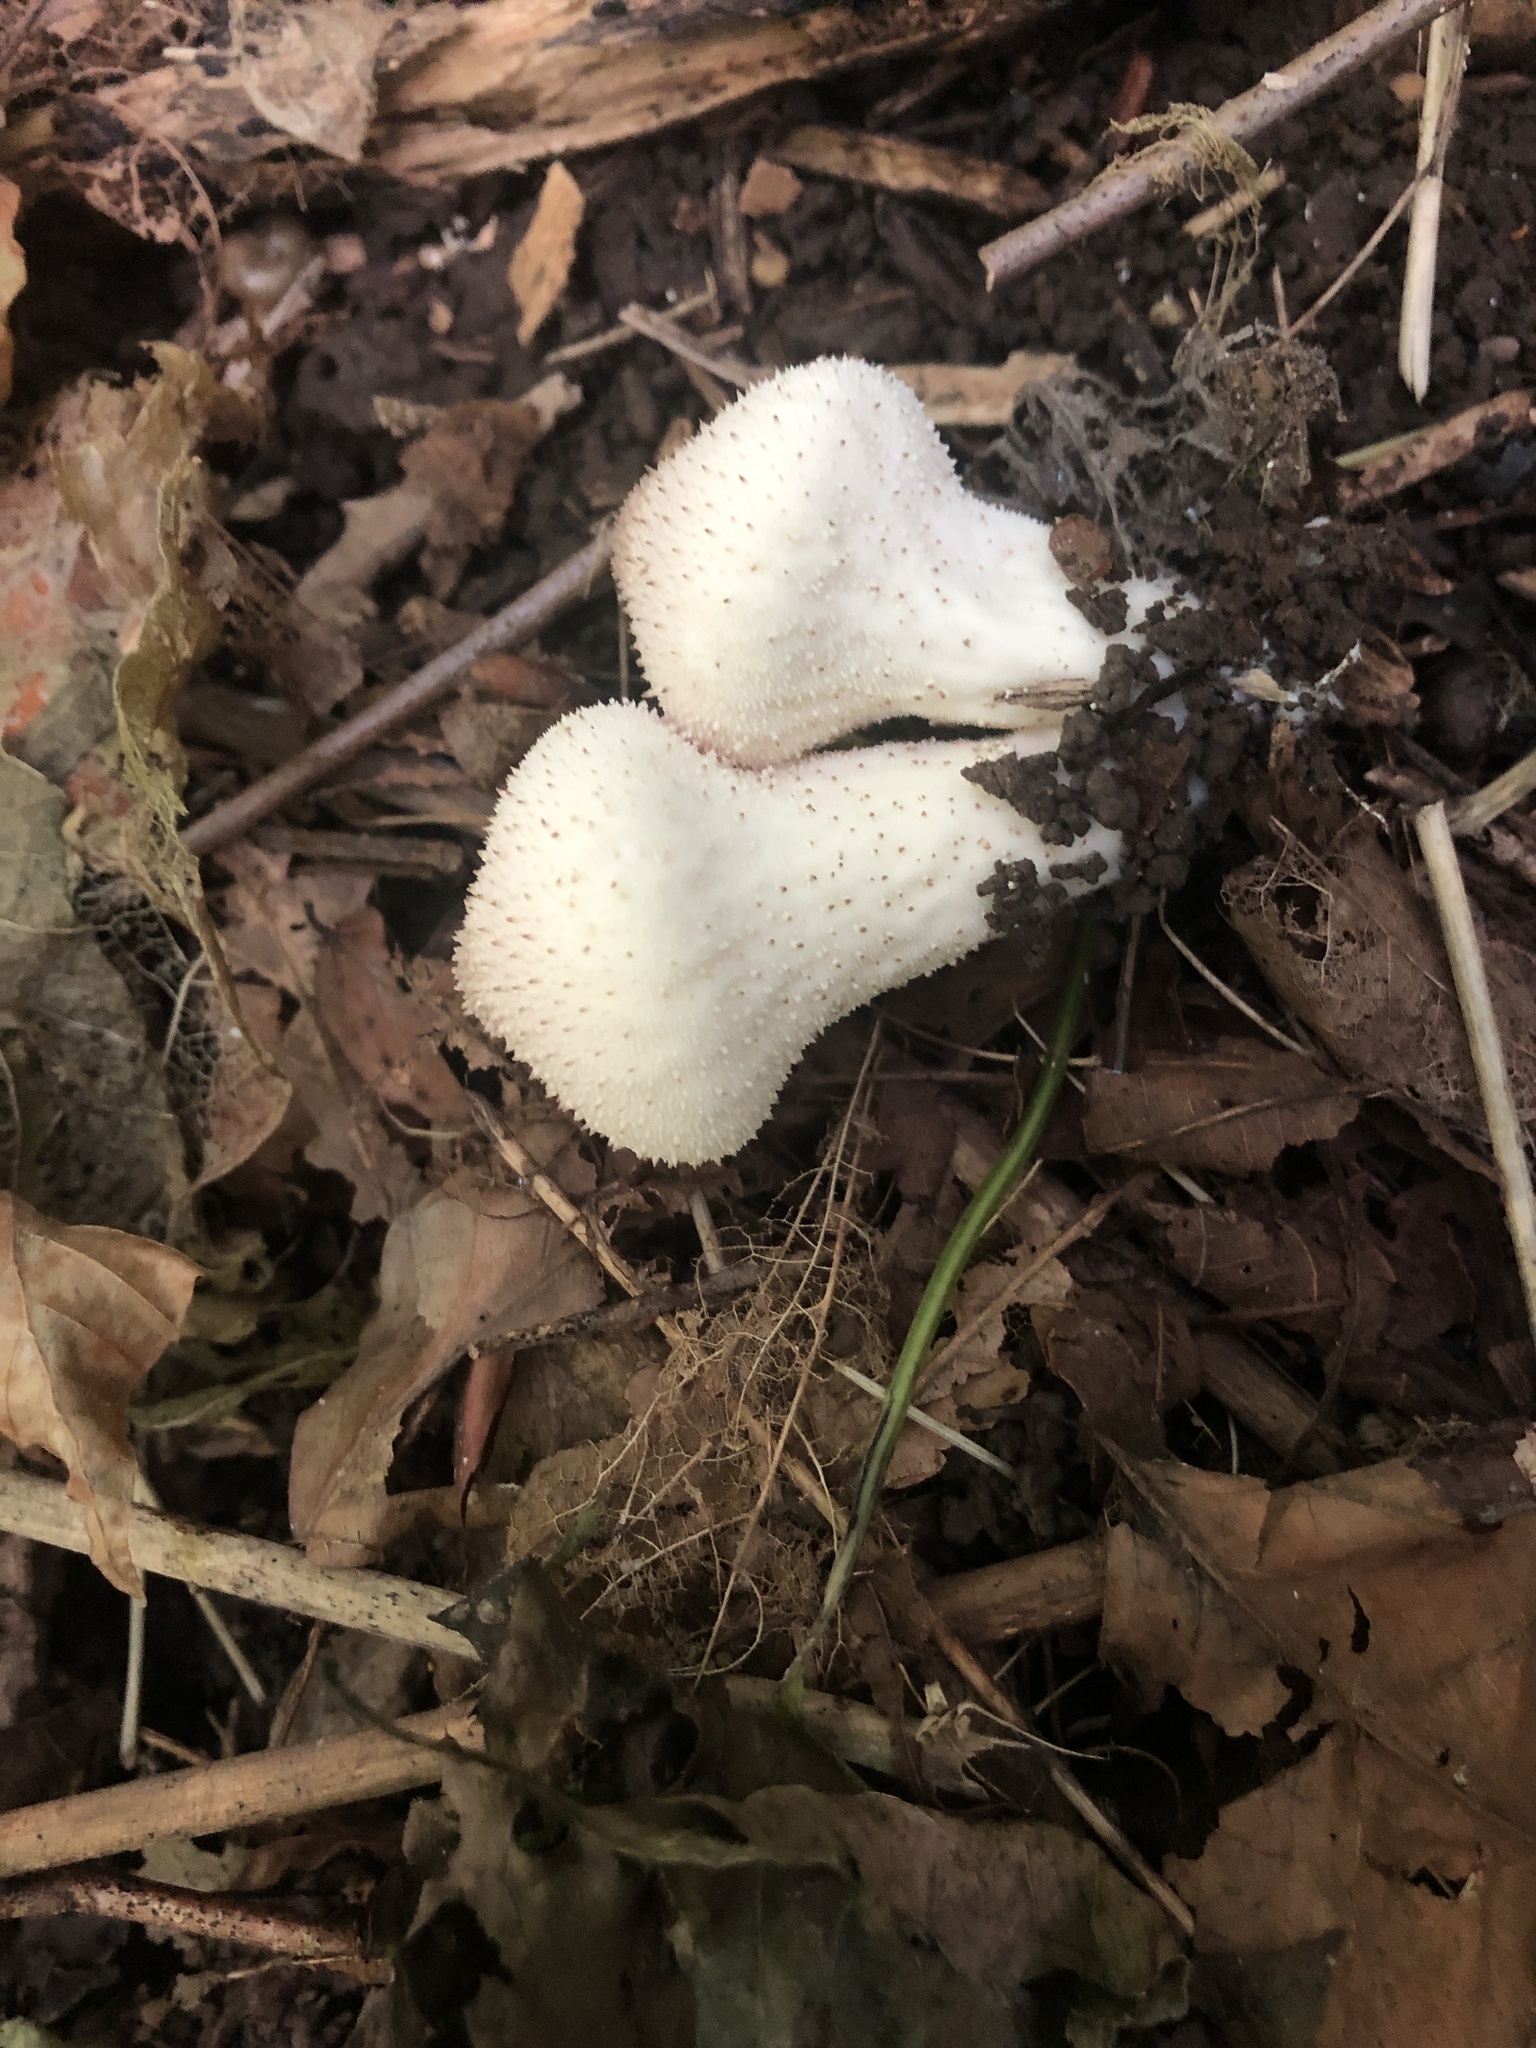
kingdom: Fungi
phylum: Basidiomycota
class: Agaricomycetes
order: Agaricales
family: Lycoperdaceae
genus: Lycoperdon
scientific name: Lycoperdon perlatum
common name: Common puffball
